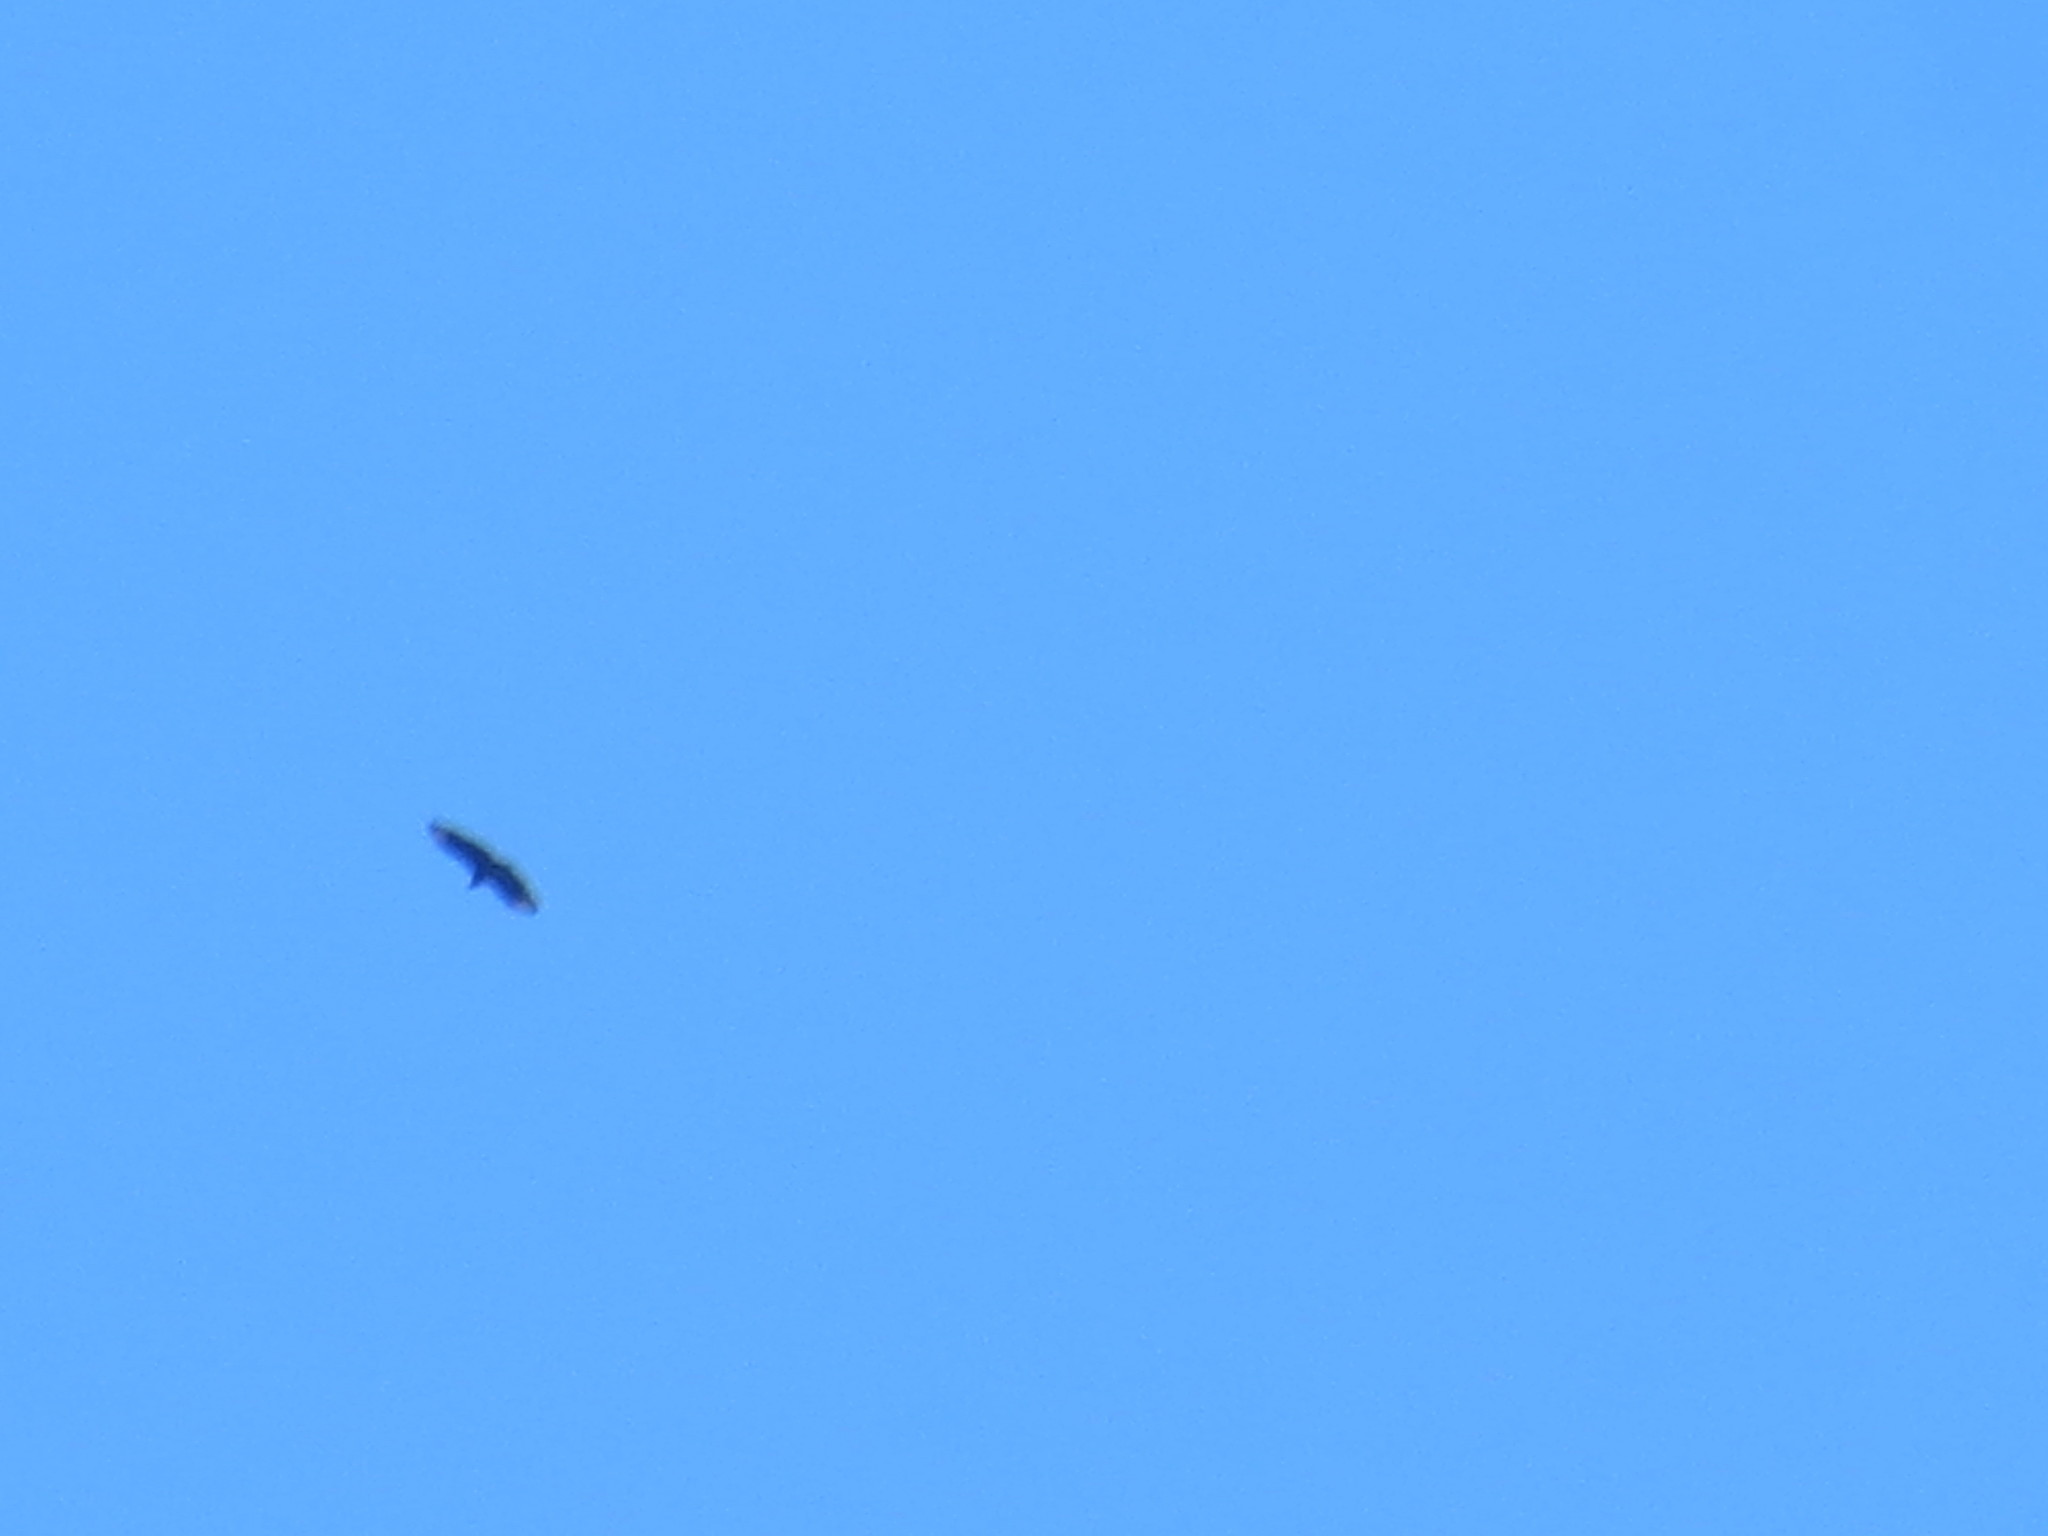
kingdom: Animalia
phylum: Chordata
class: Aves
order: Accipitriformes
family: Cathartidae
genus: Coragyps
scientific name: Coragyps atratus
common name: Black vulture
